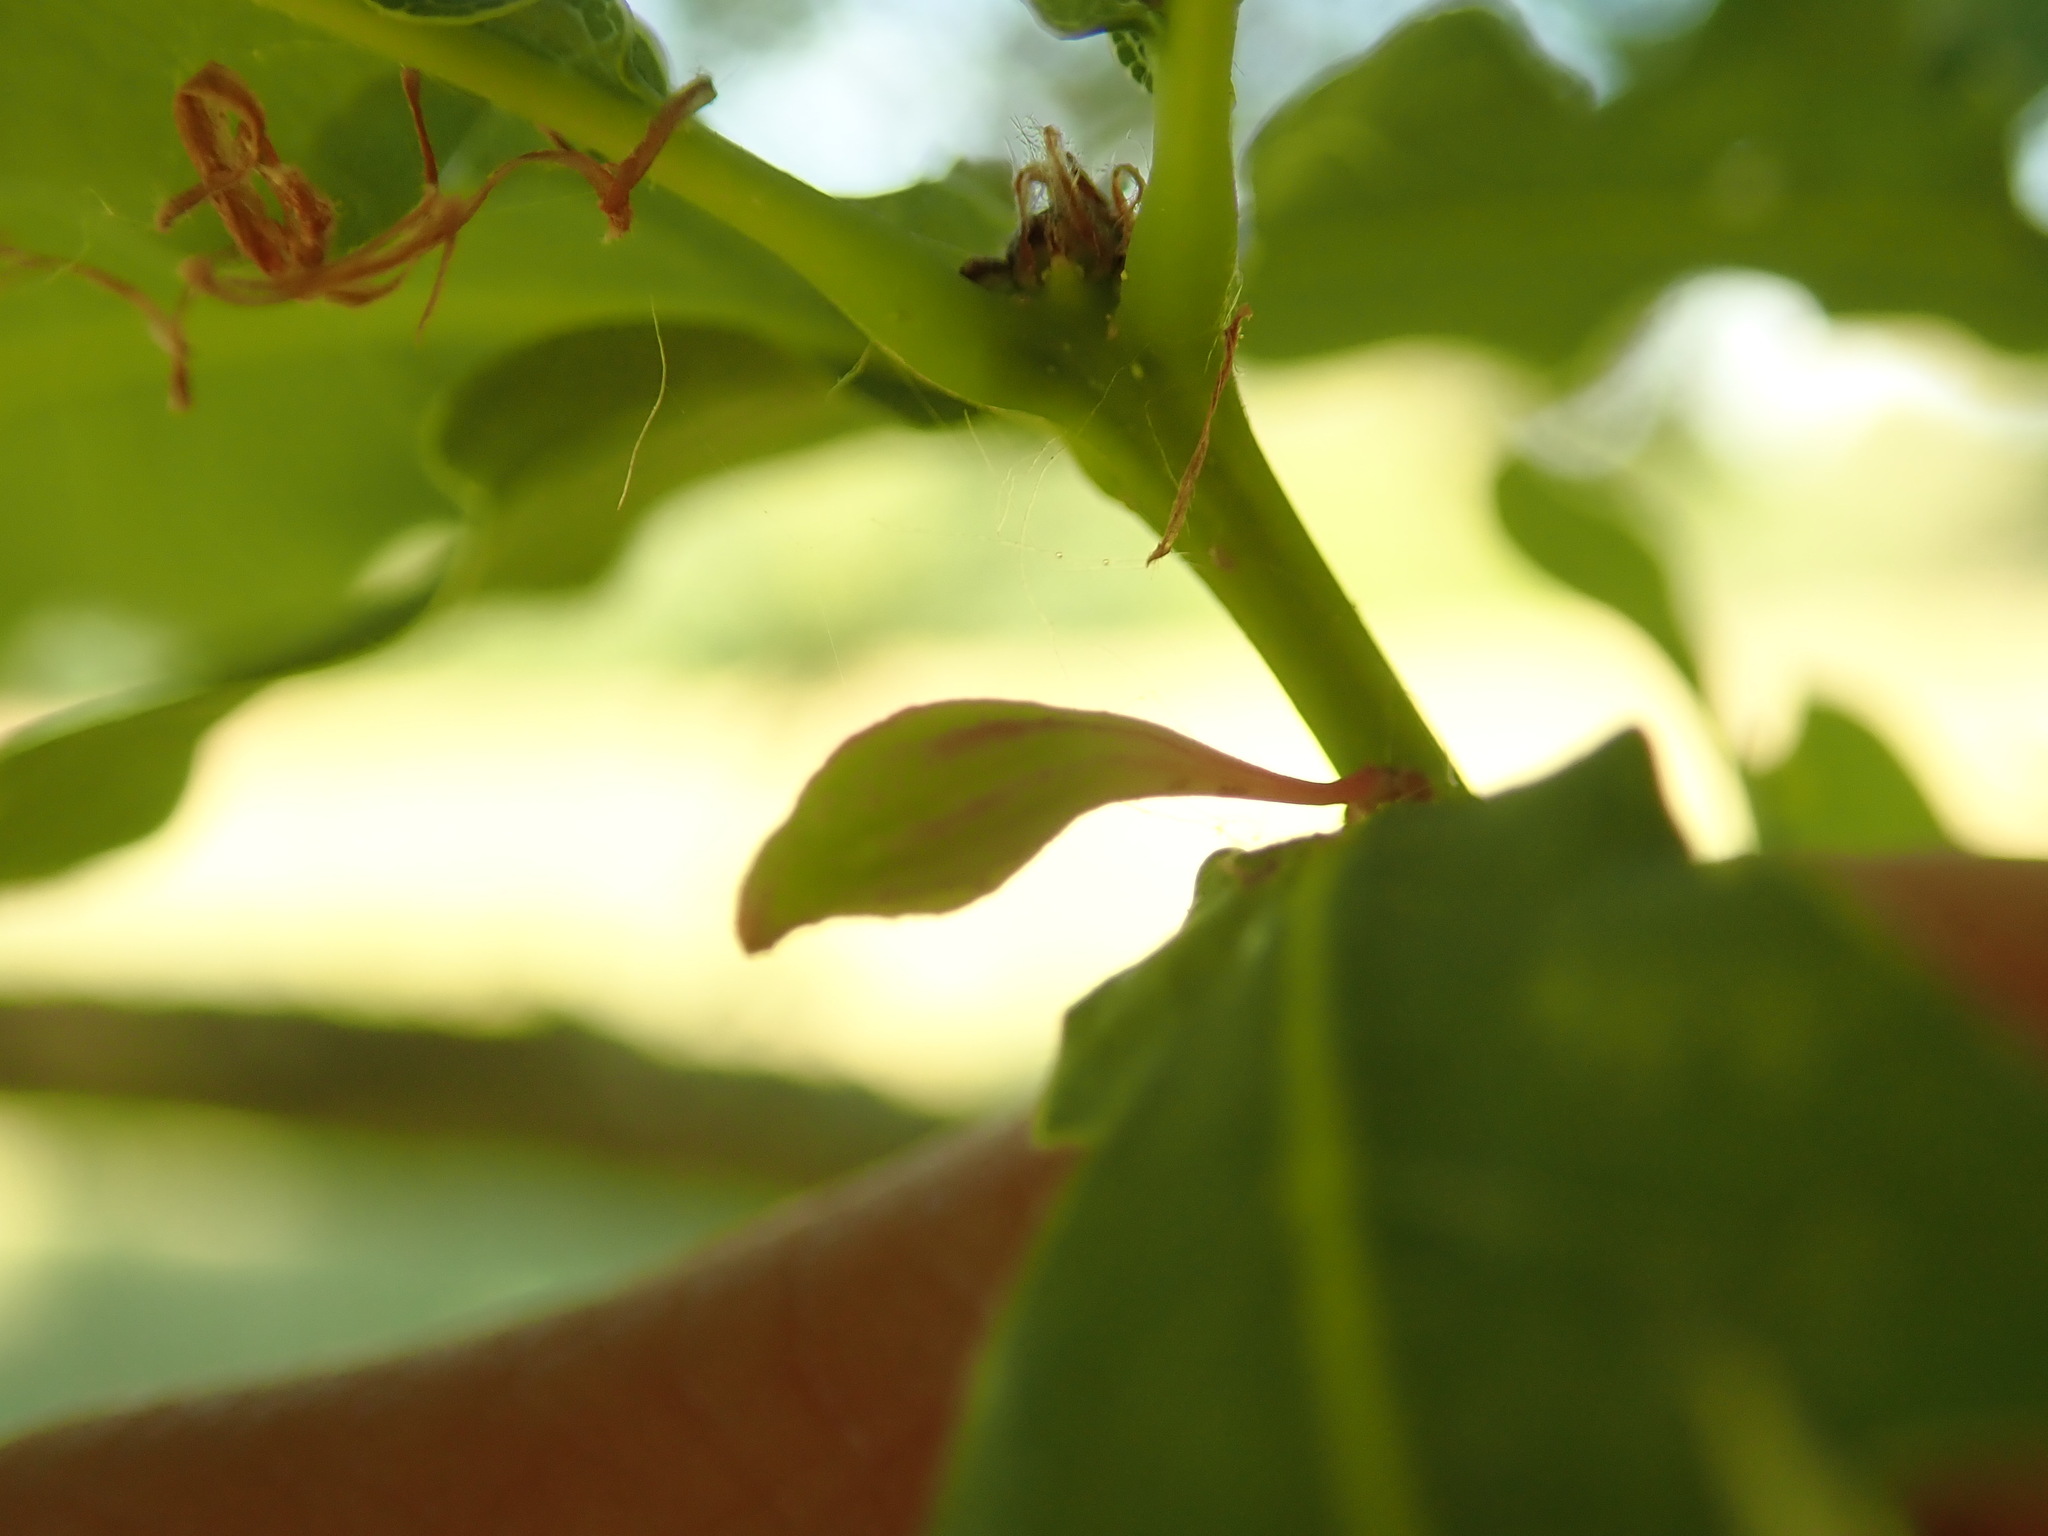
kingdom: Animalia
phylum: Arthropoda
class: Insecta
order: Hymenoptera
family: Cynipidae
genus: Andricus
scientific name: Andricus callidoma
